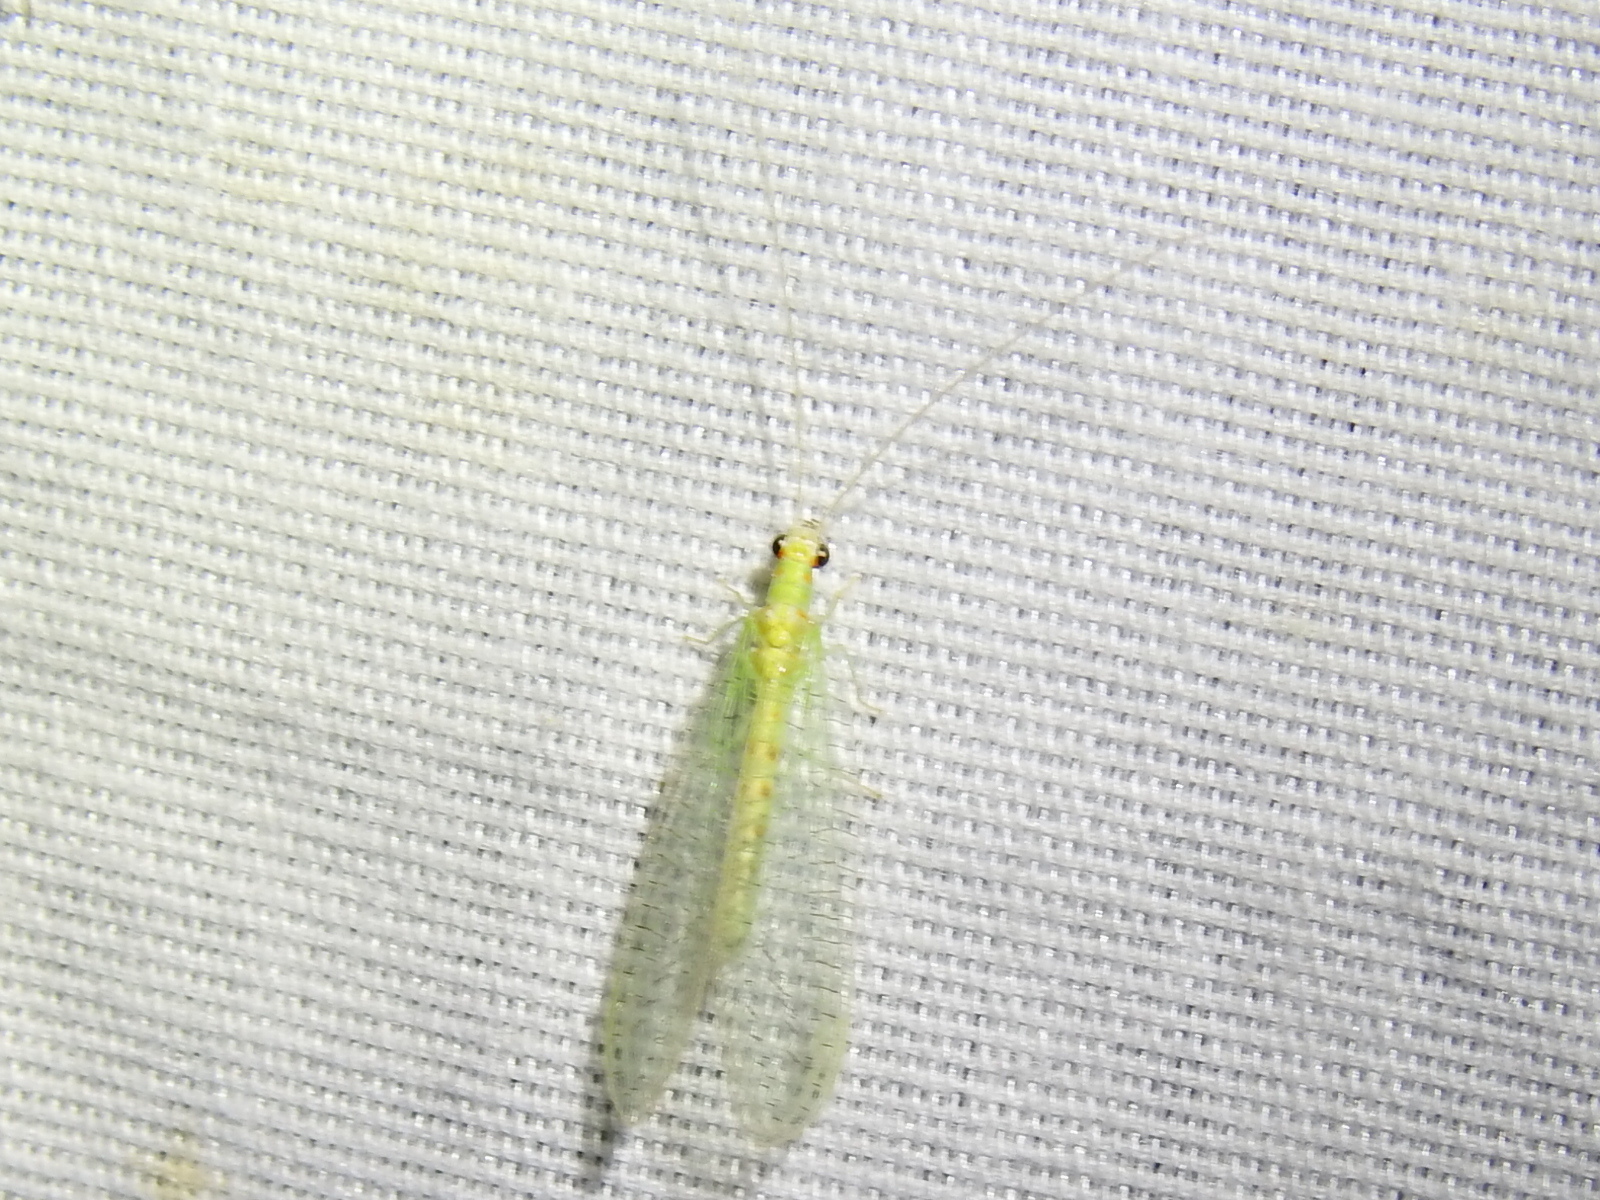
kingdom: Animalia
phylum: Arthropoda
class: Insecta
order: Neuroptera
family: Chrysopidae
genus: Chrysopa
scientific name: Chrysopa quadripunctata
